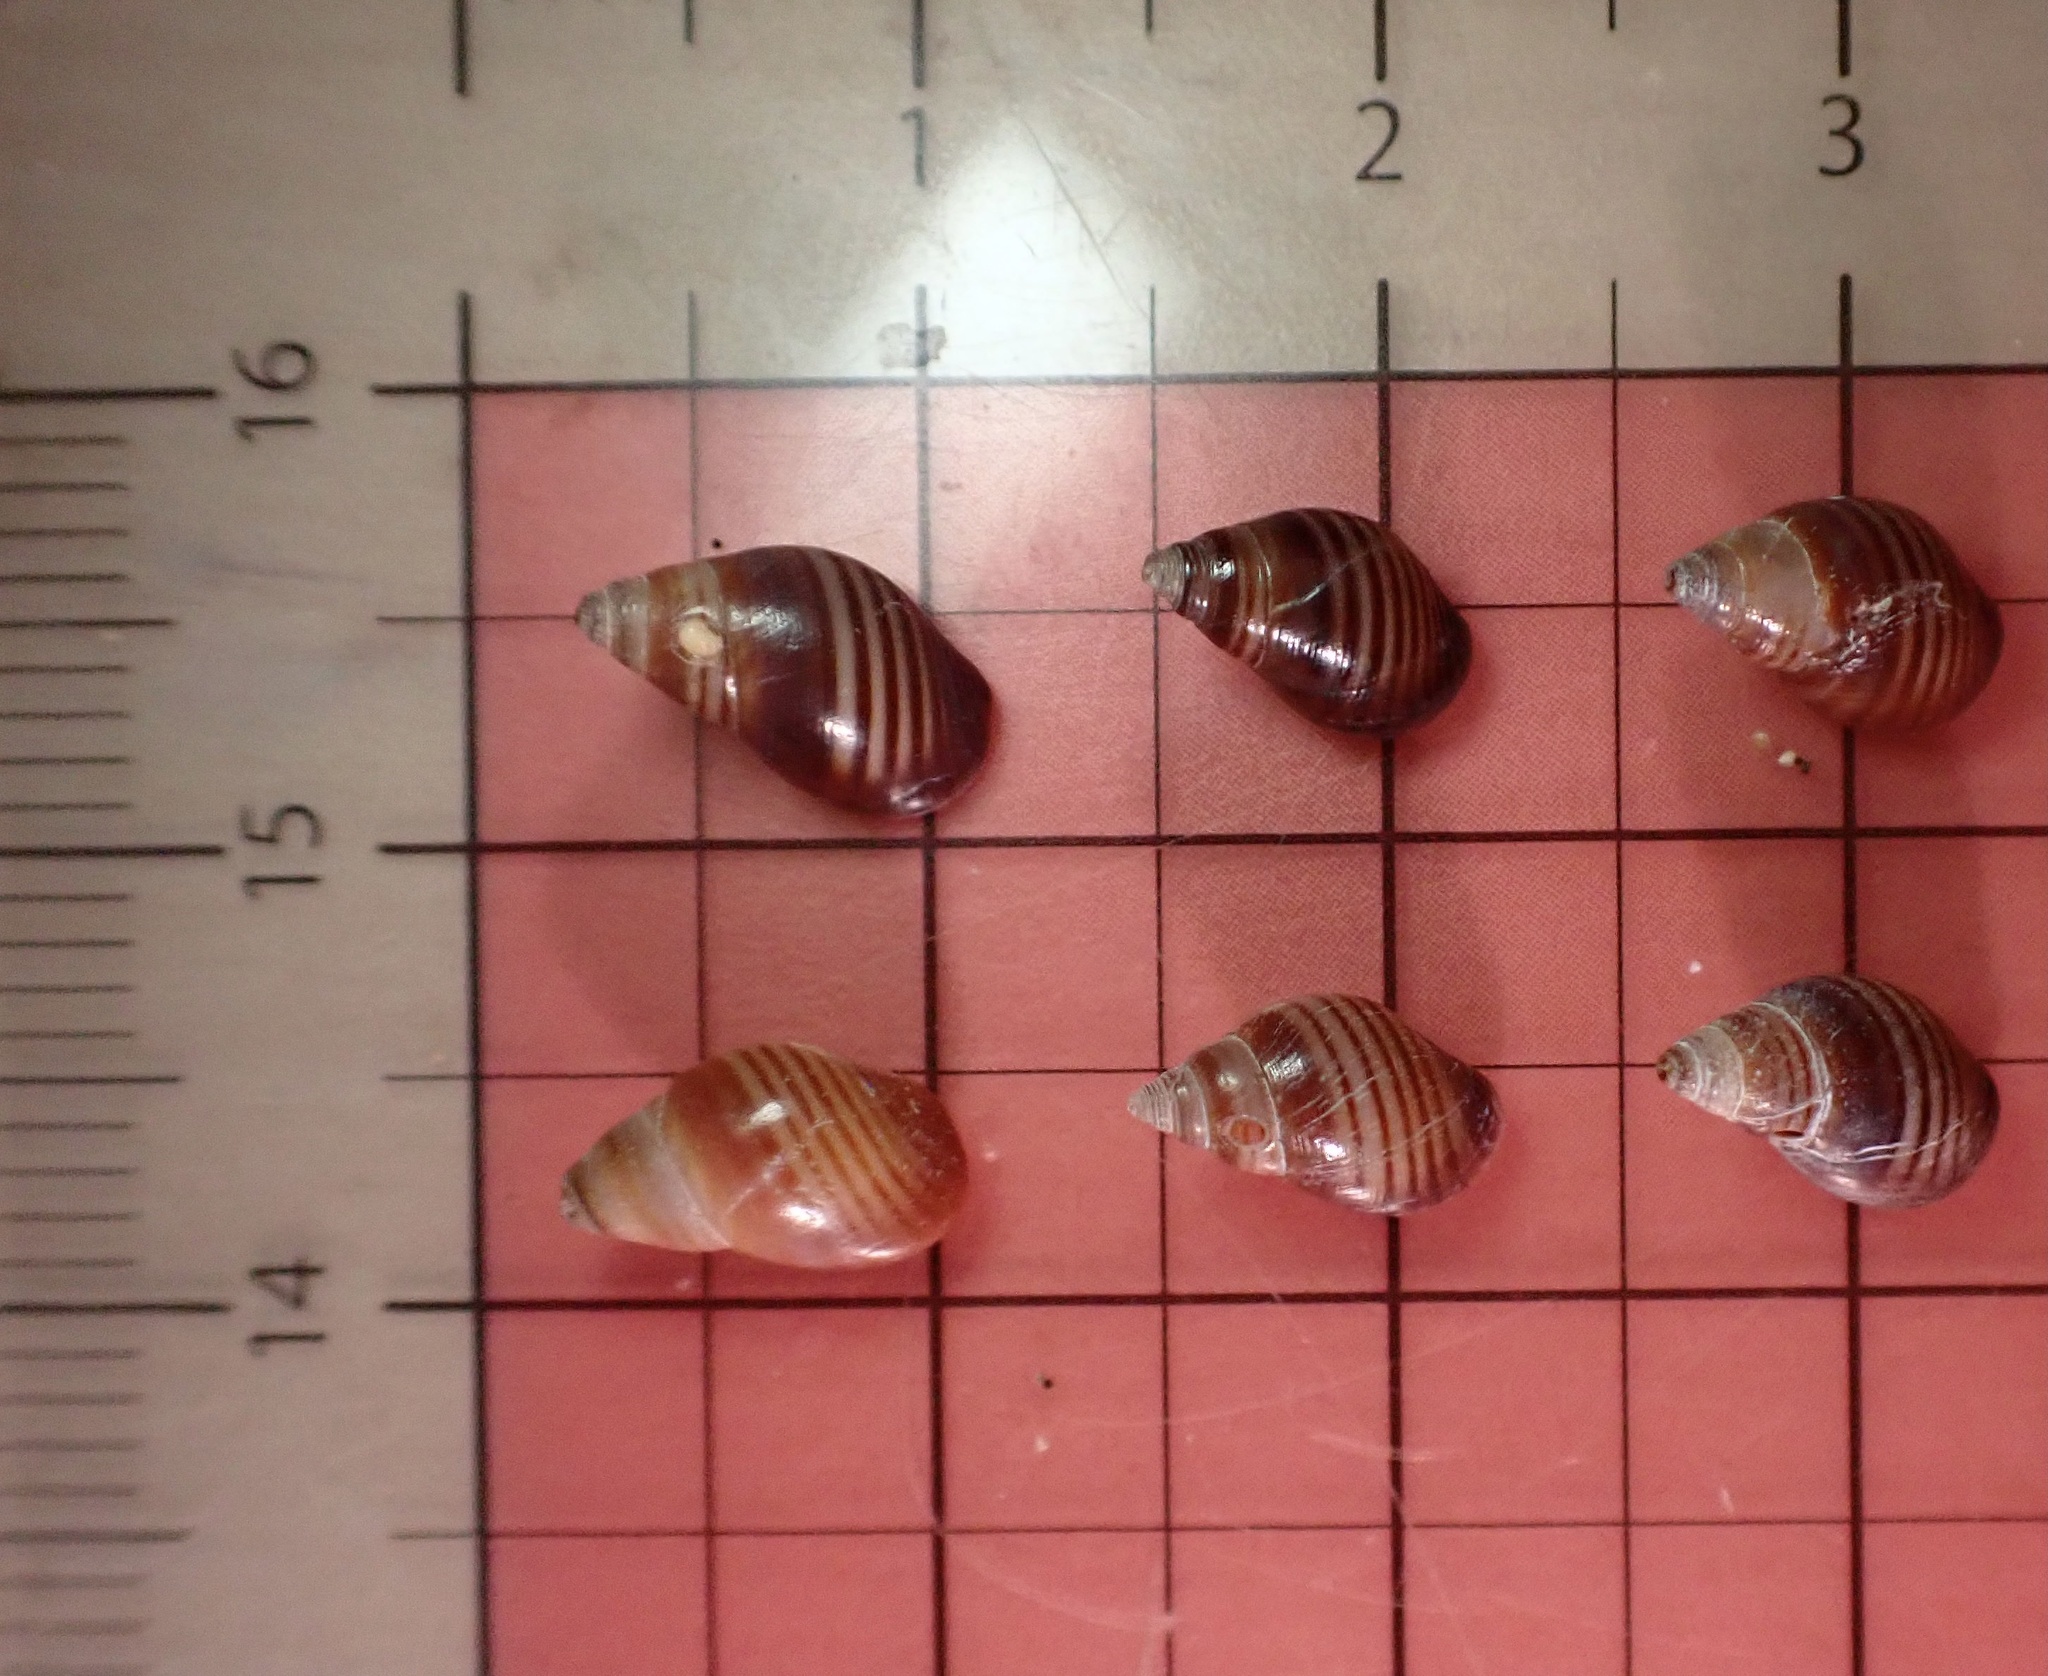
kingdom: Animalia
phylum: Mollusca
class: Gastropoda
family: Planaxidae
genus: Hinea
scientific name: Hinea zonata
